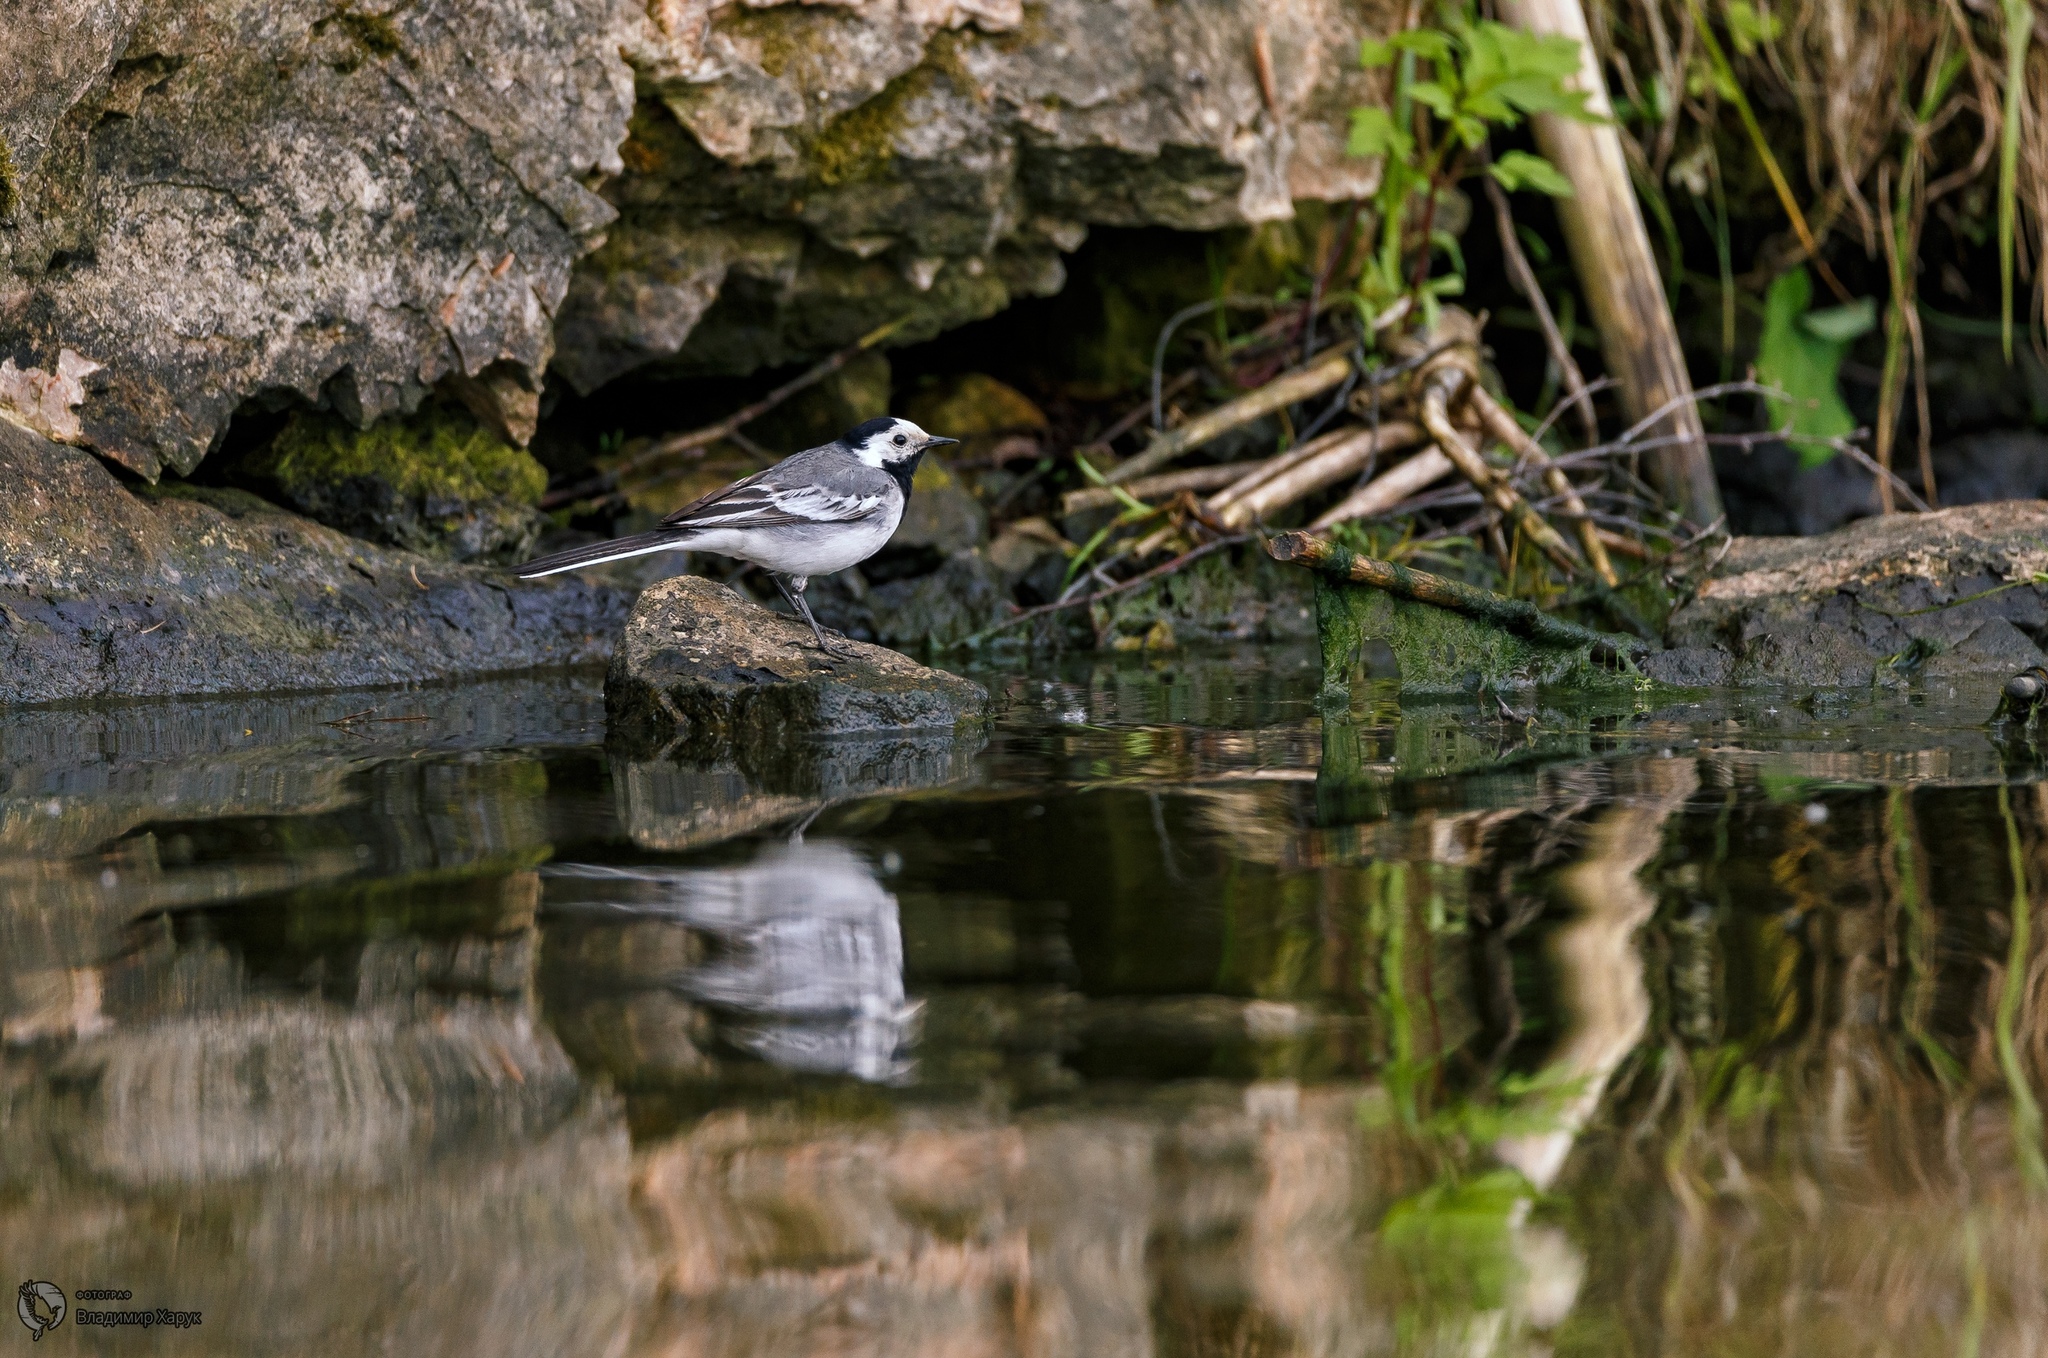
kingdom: Animalia
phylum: Chordata
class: Aves
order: Passeriformes
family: Motacillidae
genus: Motacilla
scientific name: Motacilla alba
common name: White wagtail
